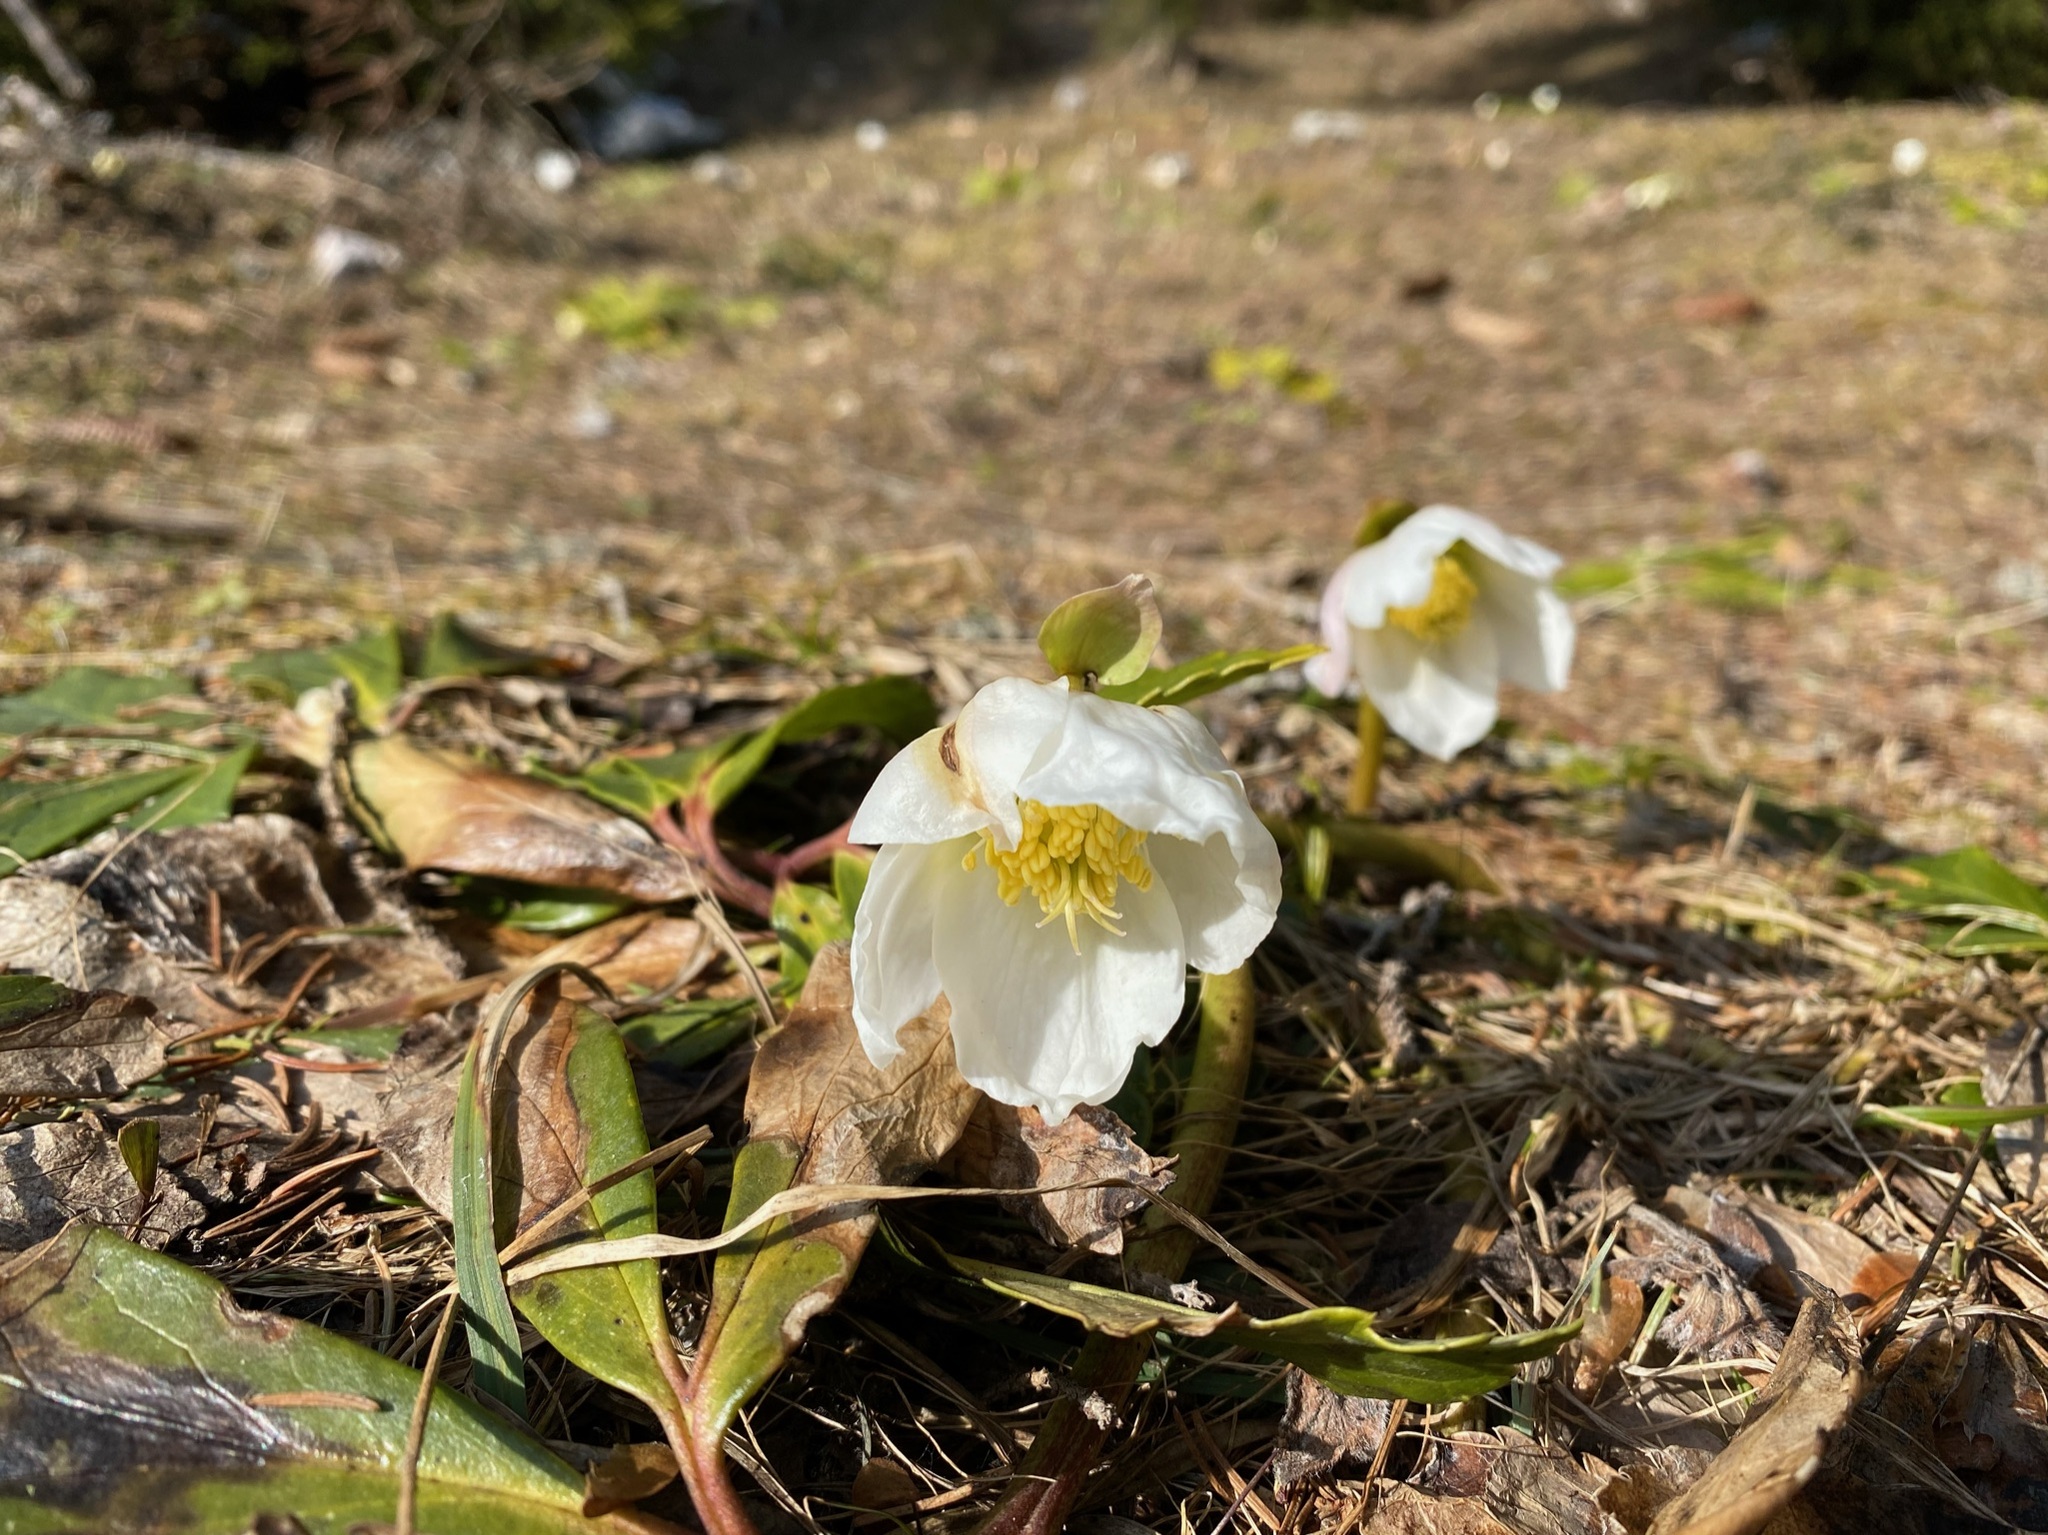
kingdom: Plantae
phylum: Tracheophyta
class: Magnoliopsida
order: Ranunculales
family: Ranunculaceae
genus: Helleborus
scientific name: Helleborus niger
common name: Black hellebore
